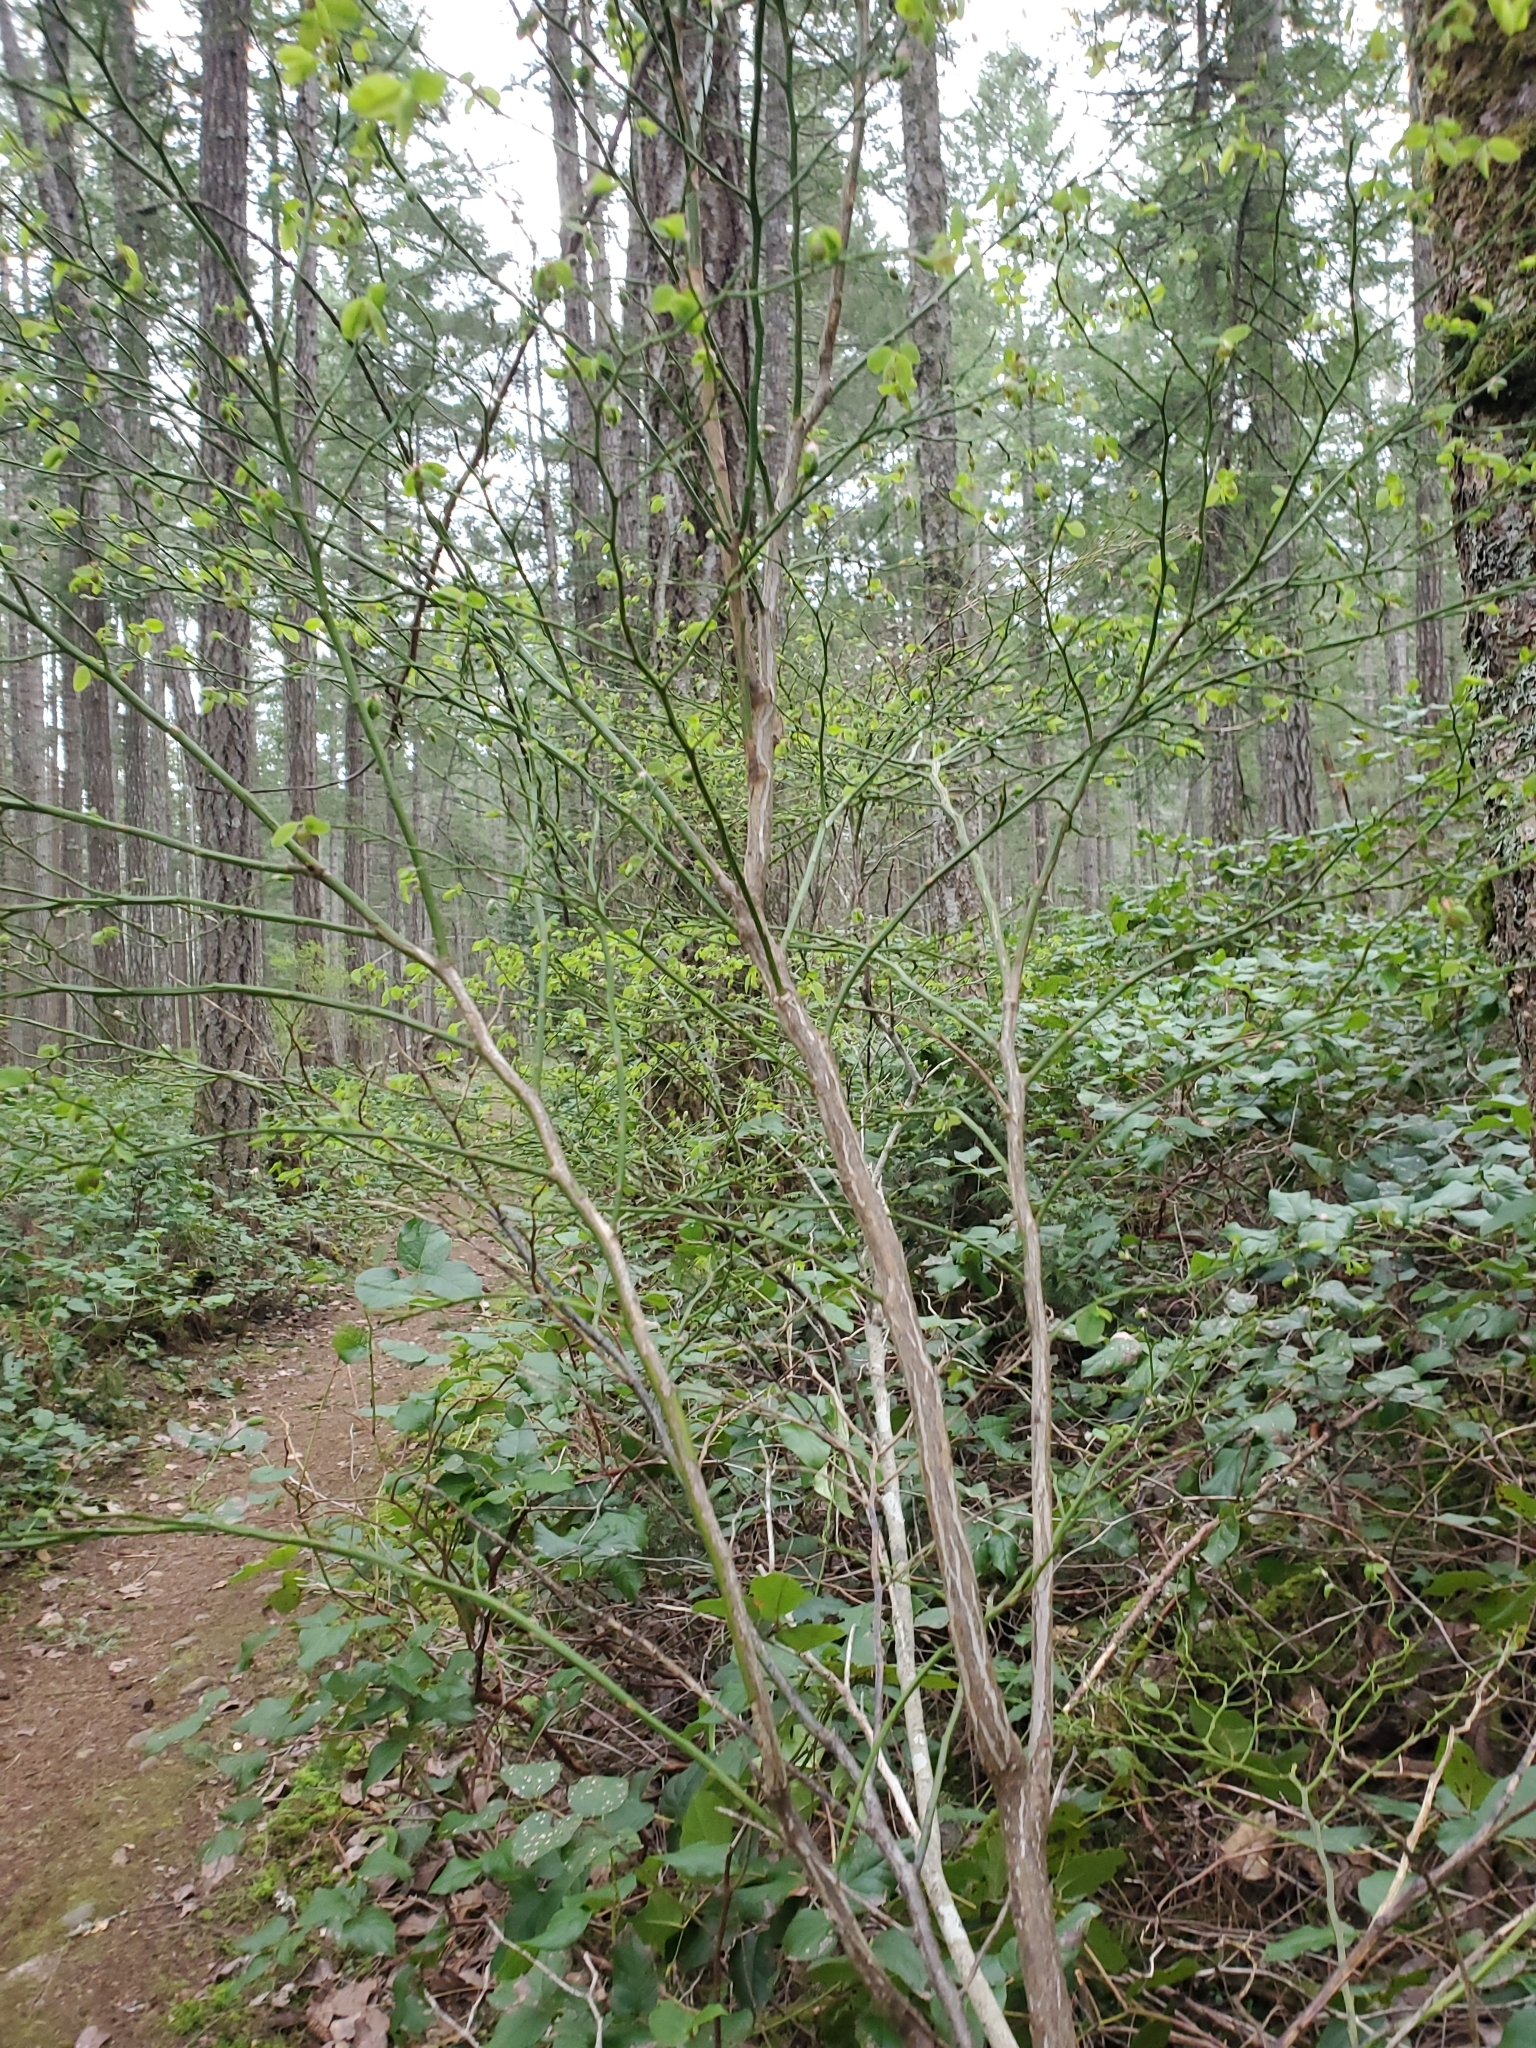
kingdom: Plantae
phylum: Tracheophyta
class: Magnoliopsida
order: Ericales
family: Ericaceae
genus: Vaccinium
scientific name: Vaccinium parvifolium
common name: Red-huckleberry
